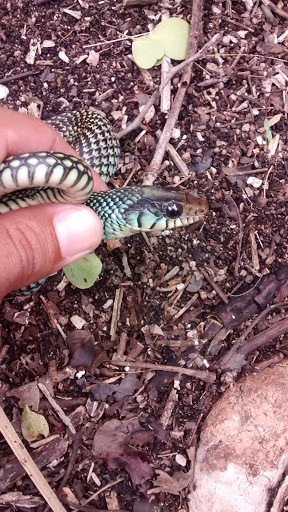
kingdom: Animalia
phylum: Chordata
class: Squamata
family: Colubridae
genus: Drymobius
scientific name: Drymobius margaritiferus
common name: Central american speckled racer
